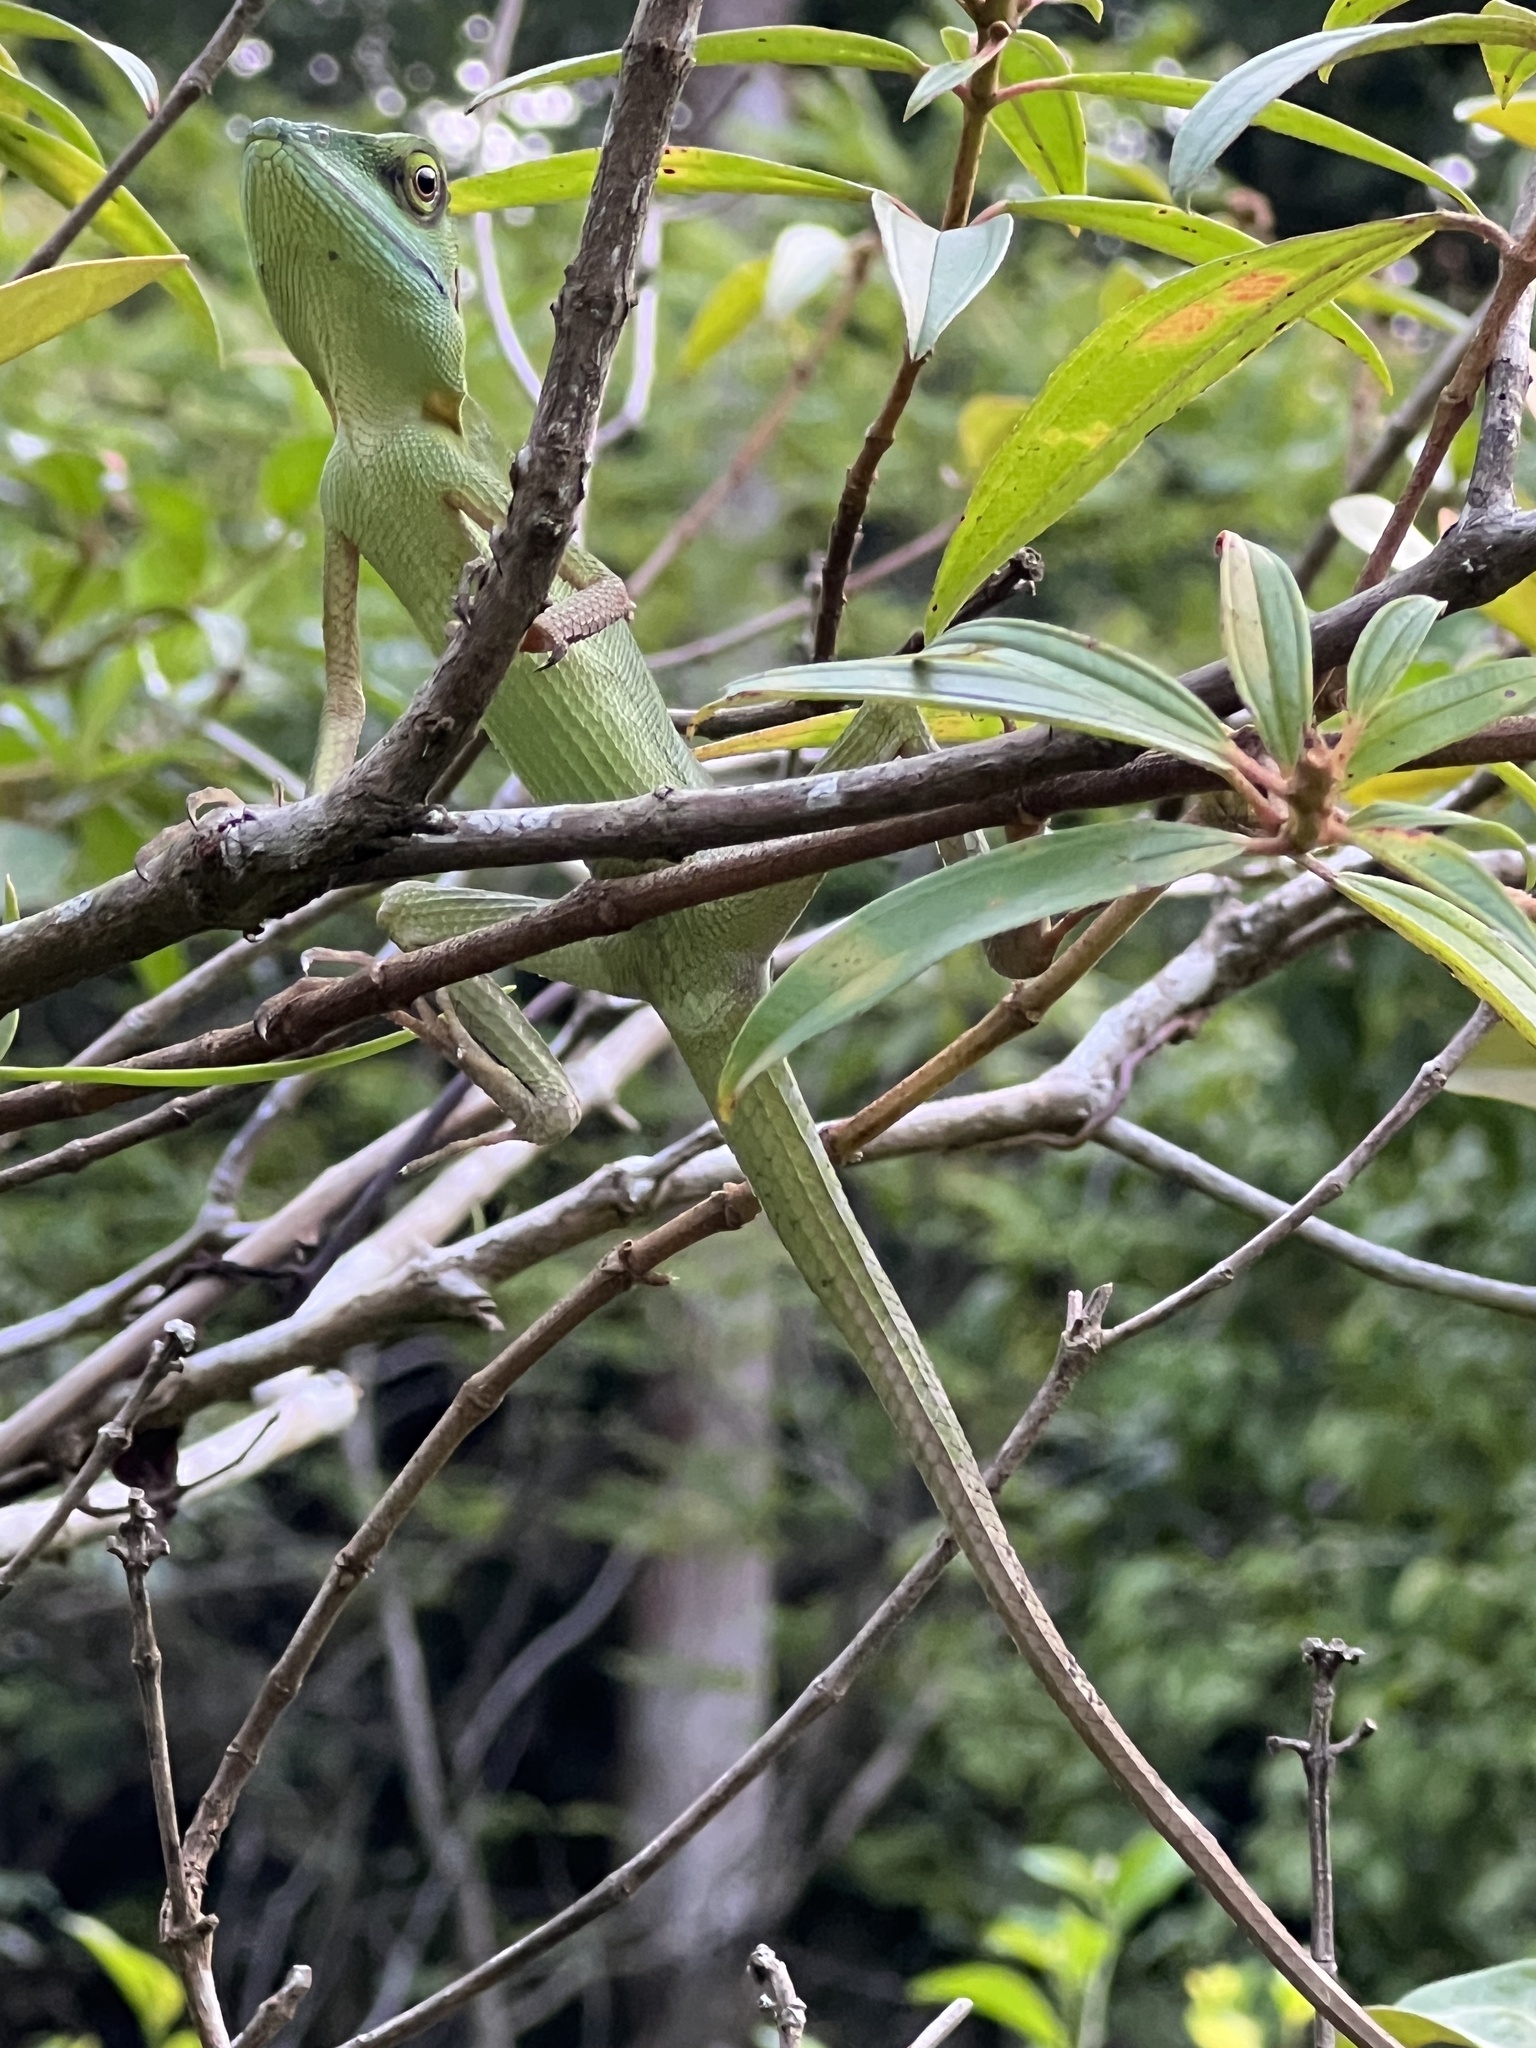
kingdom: Animalia
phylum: Chordata
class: Squamata
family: Agamidae
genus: Bronchocela
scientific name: Bronchocela cristatella
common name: Green crested lizard
